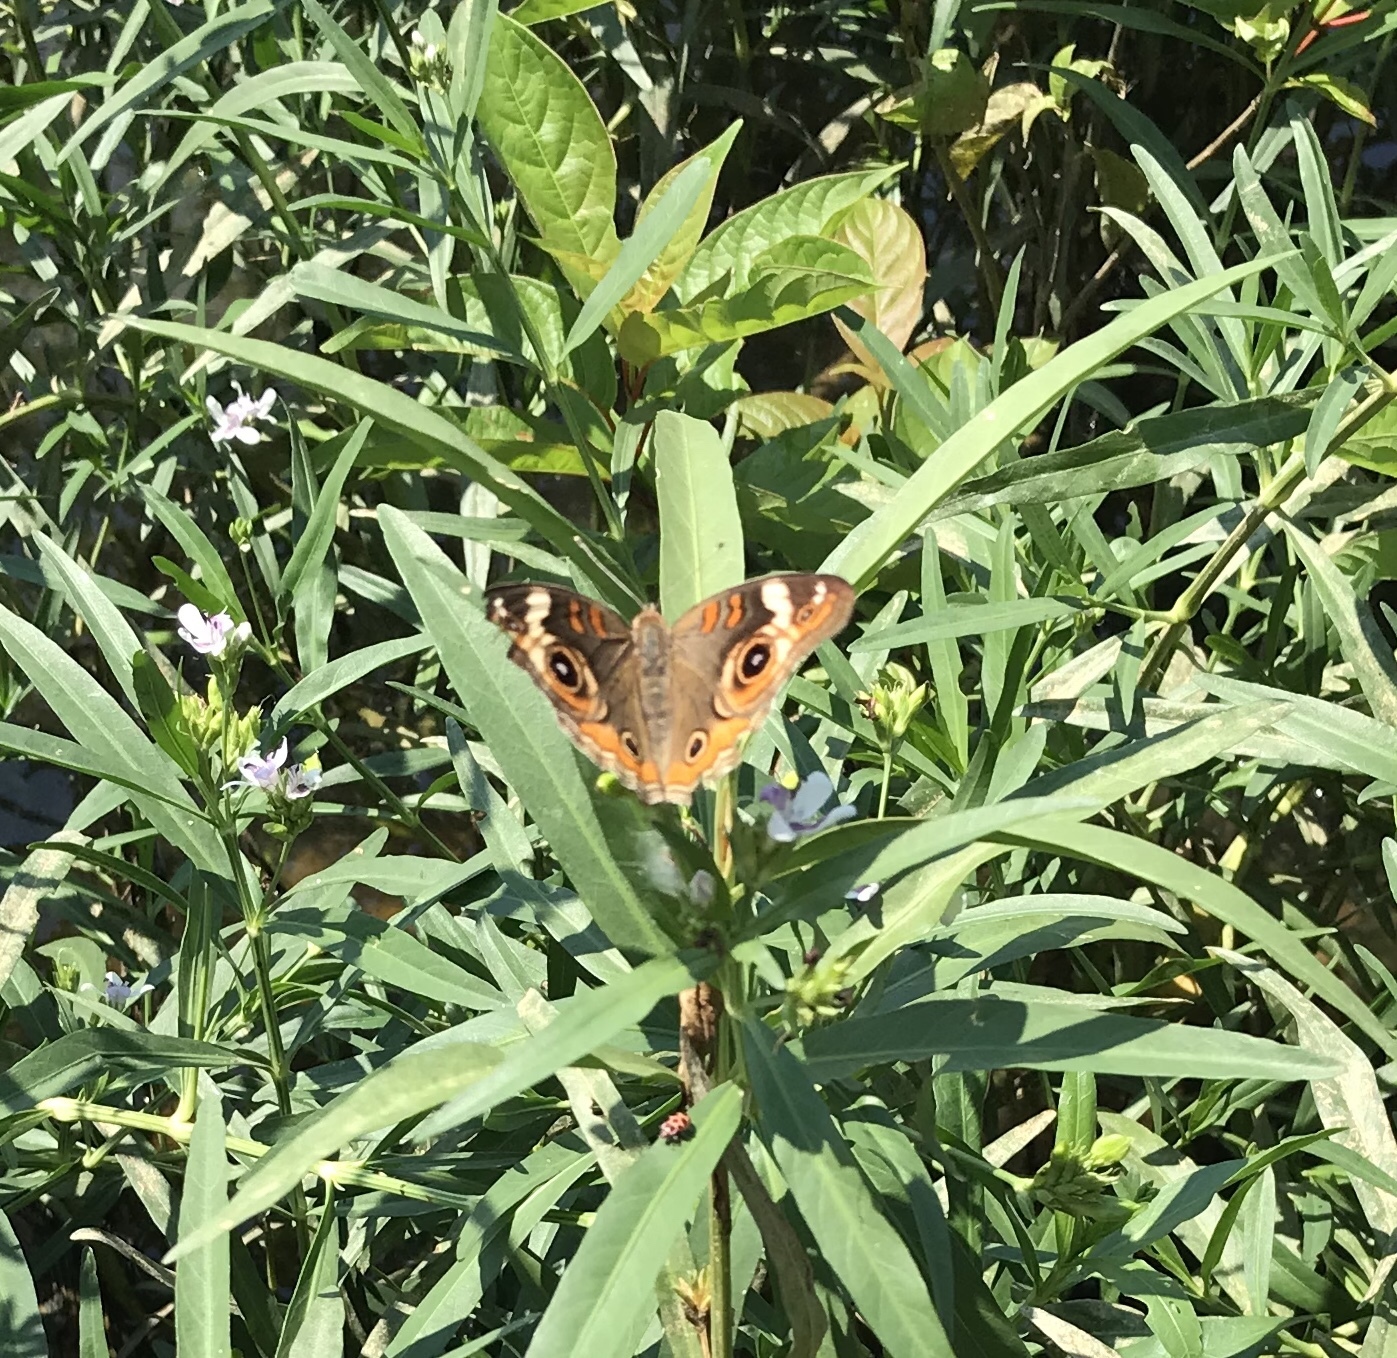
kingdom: Animalia
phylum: Arthropoda
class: Insecta
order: Lepidoptera
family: Nymphalidae
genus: Junonia
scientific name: Junonia coenia
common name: Common buckeye
